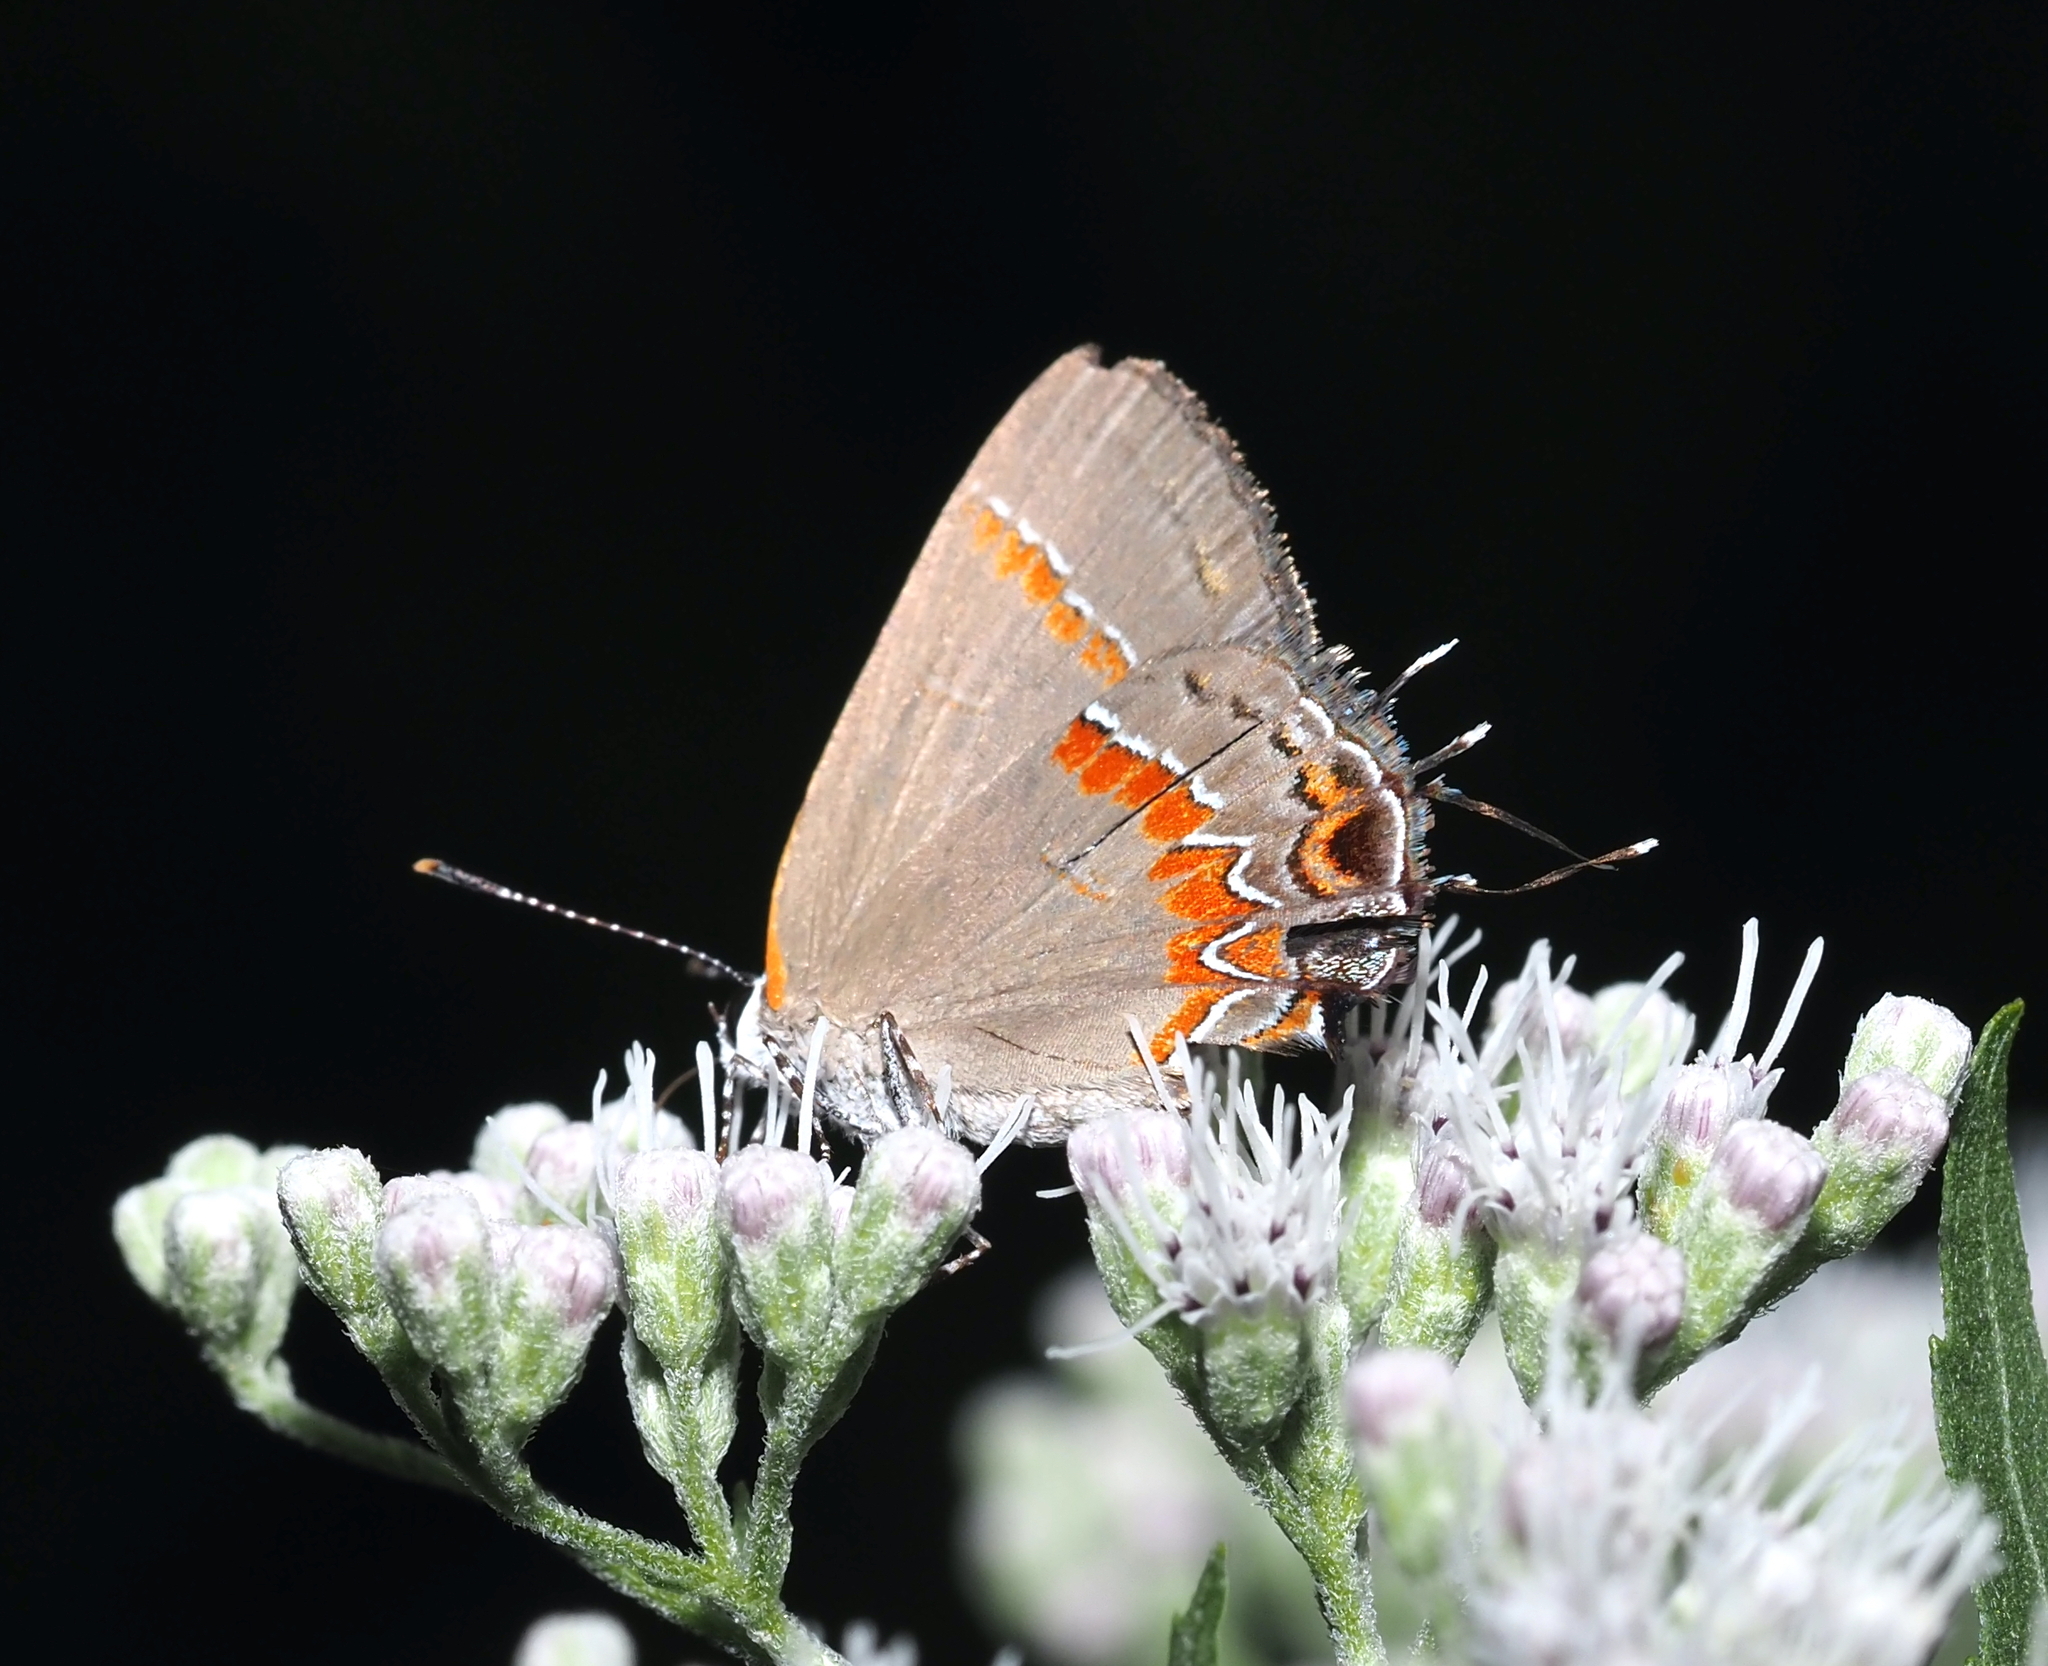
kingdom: Animalia
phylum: Arthropoda
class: Insecta
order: Lepidoptera
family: Lycaenidae
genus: Calycopis
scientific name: Calycopis cecrops
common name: Red-banded hairstreak
